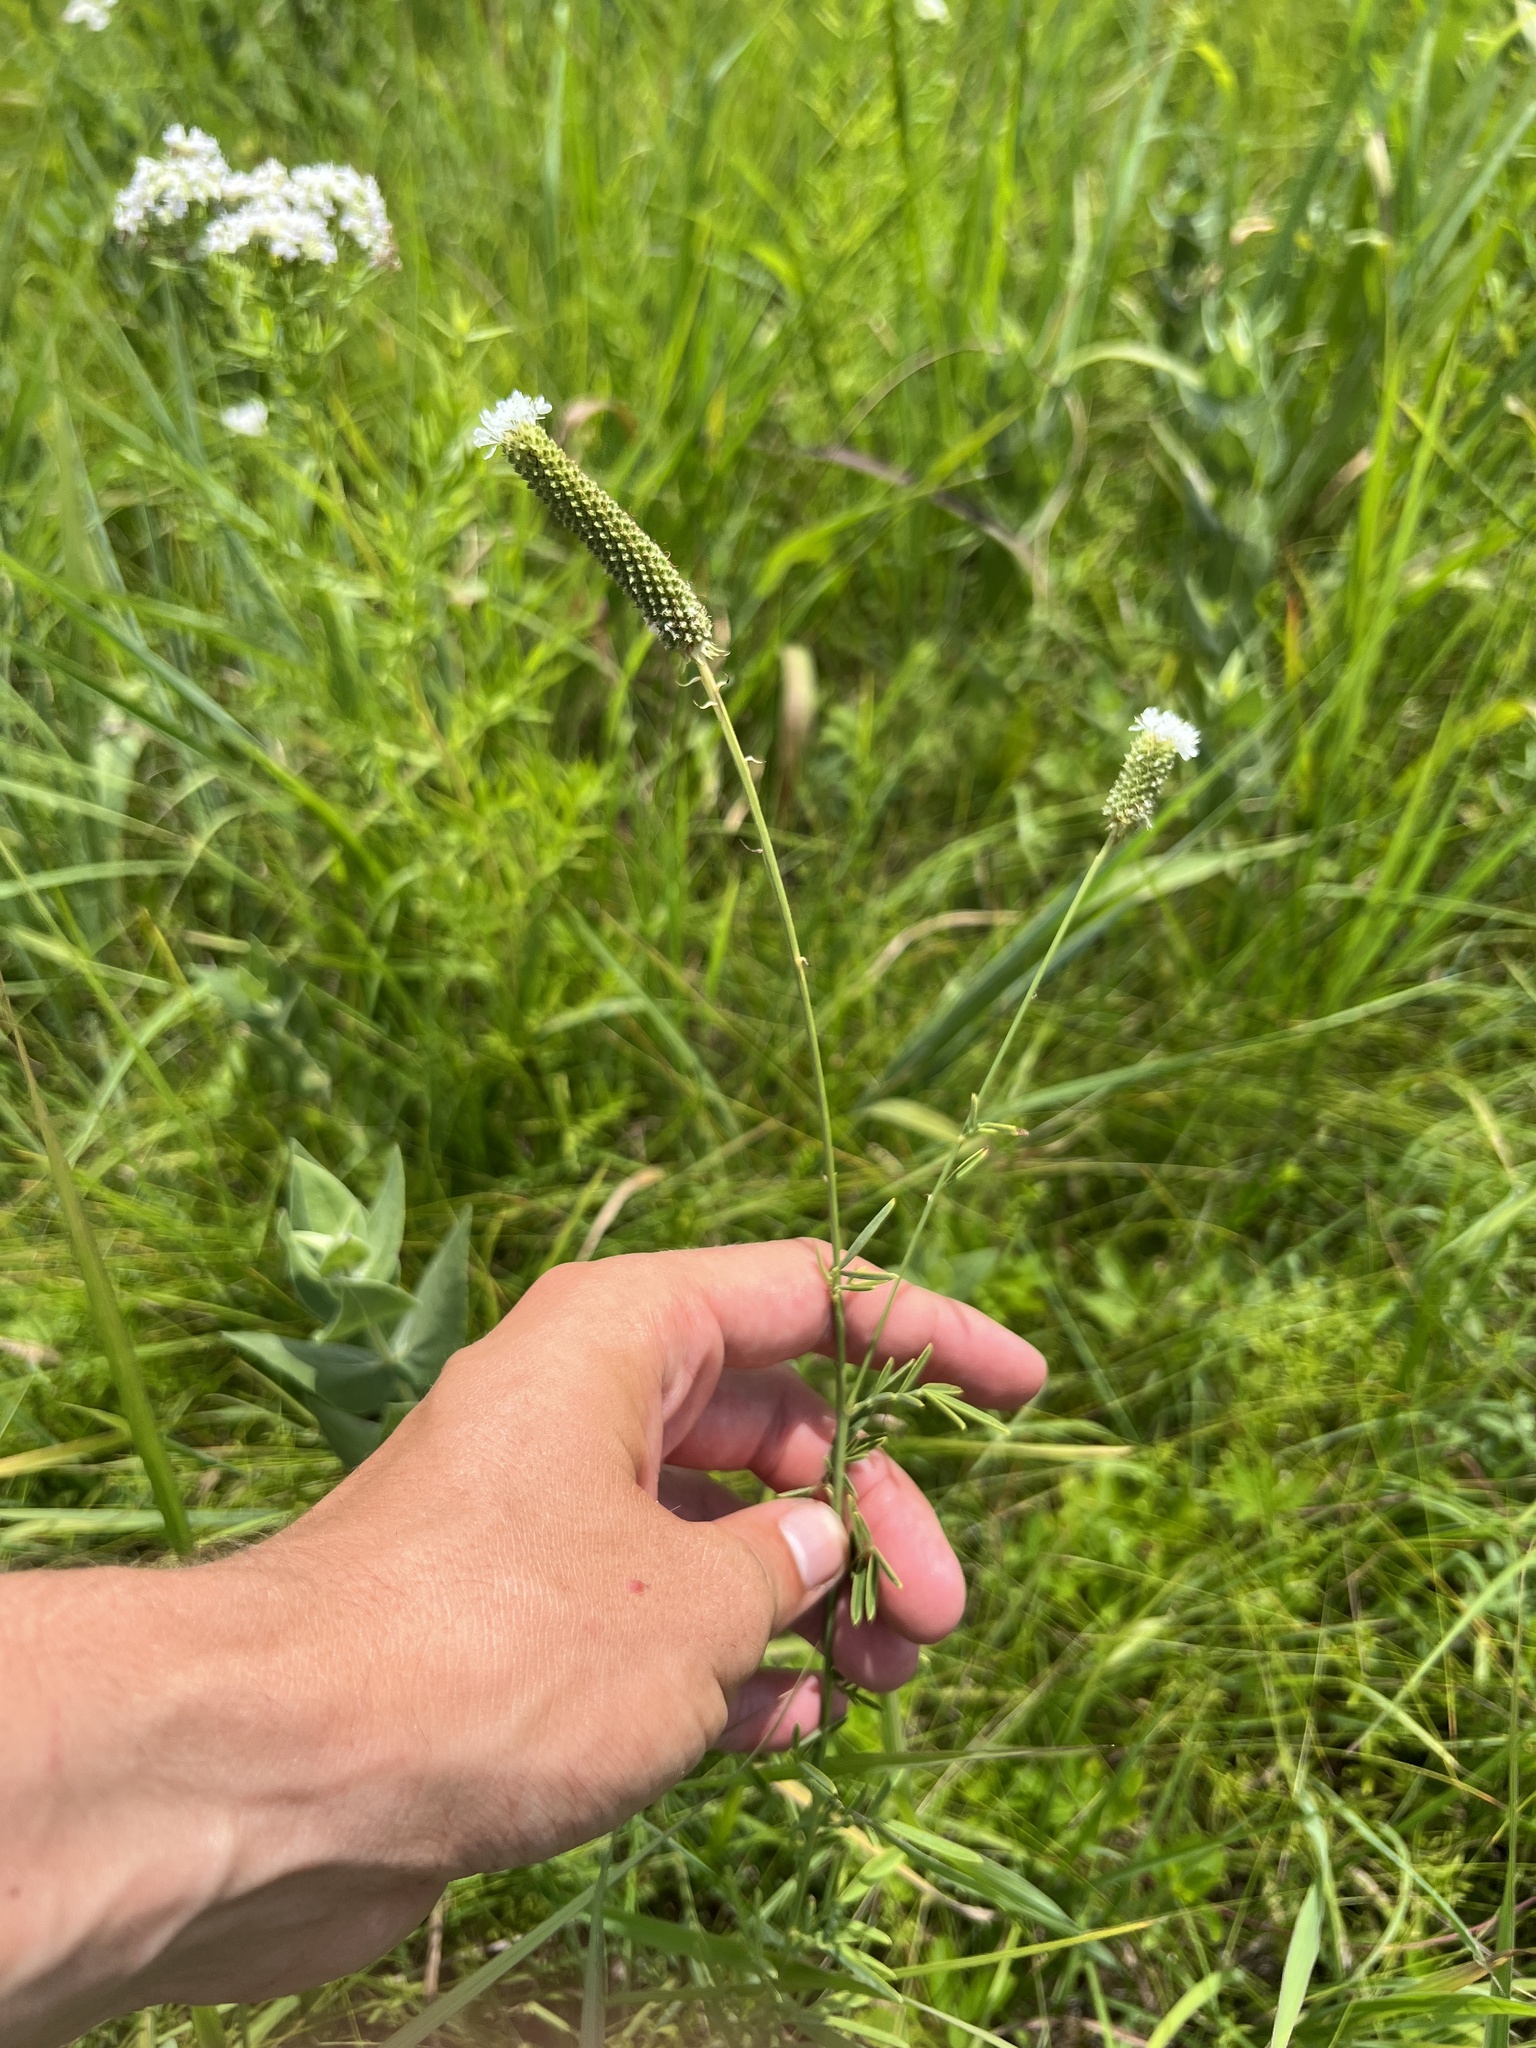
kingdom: Plantae
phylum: Tracheophyta
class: Magnoliopsida
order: Fabales
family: Fabaceae
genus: Dalea
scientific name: Dalea candida
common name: White prairie-clover
